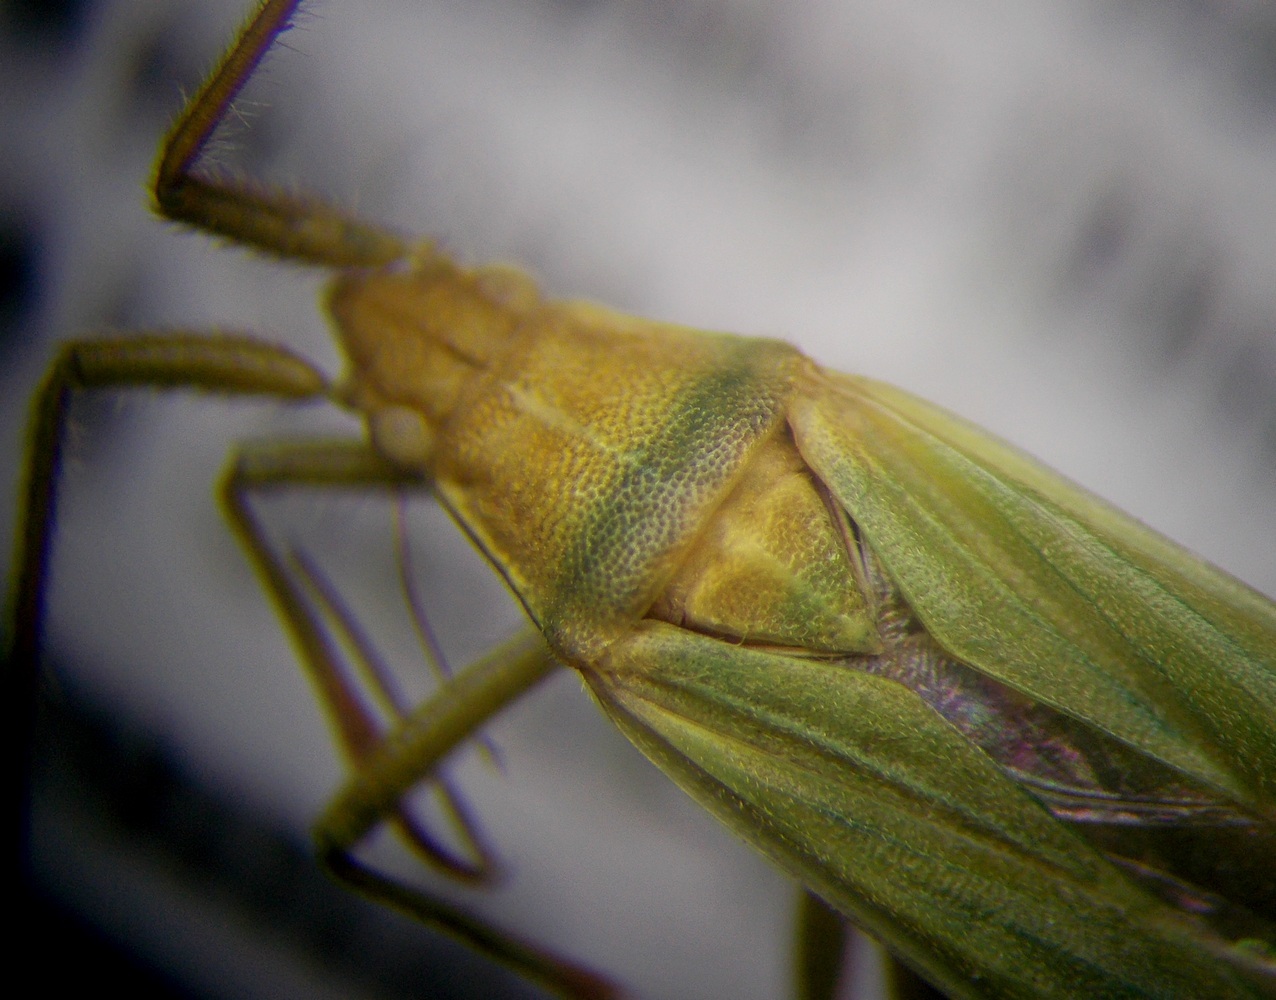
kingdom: Animalia
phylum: Arthropoda
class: Insecta
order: Hemiptera
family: Miridae
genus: Stenodema
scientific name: Stenodema calcarata
